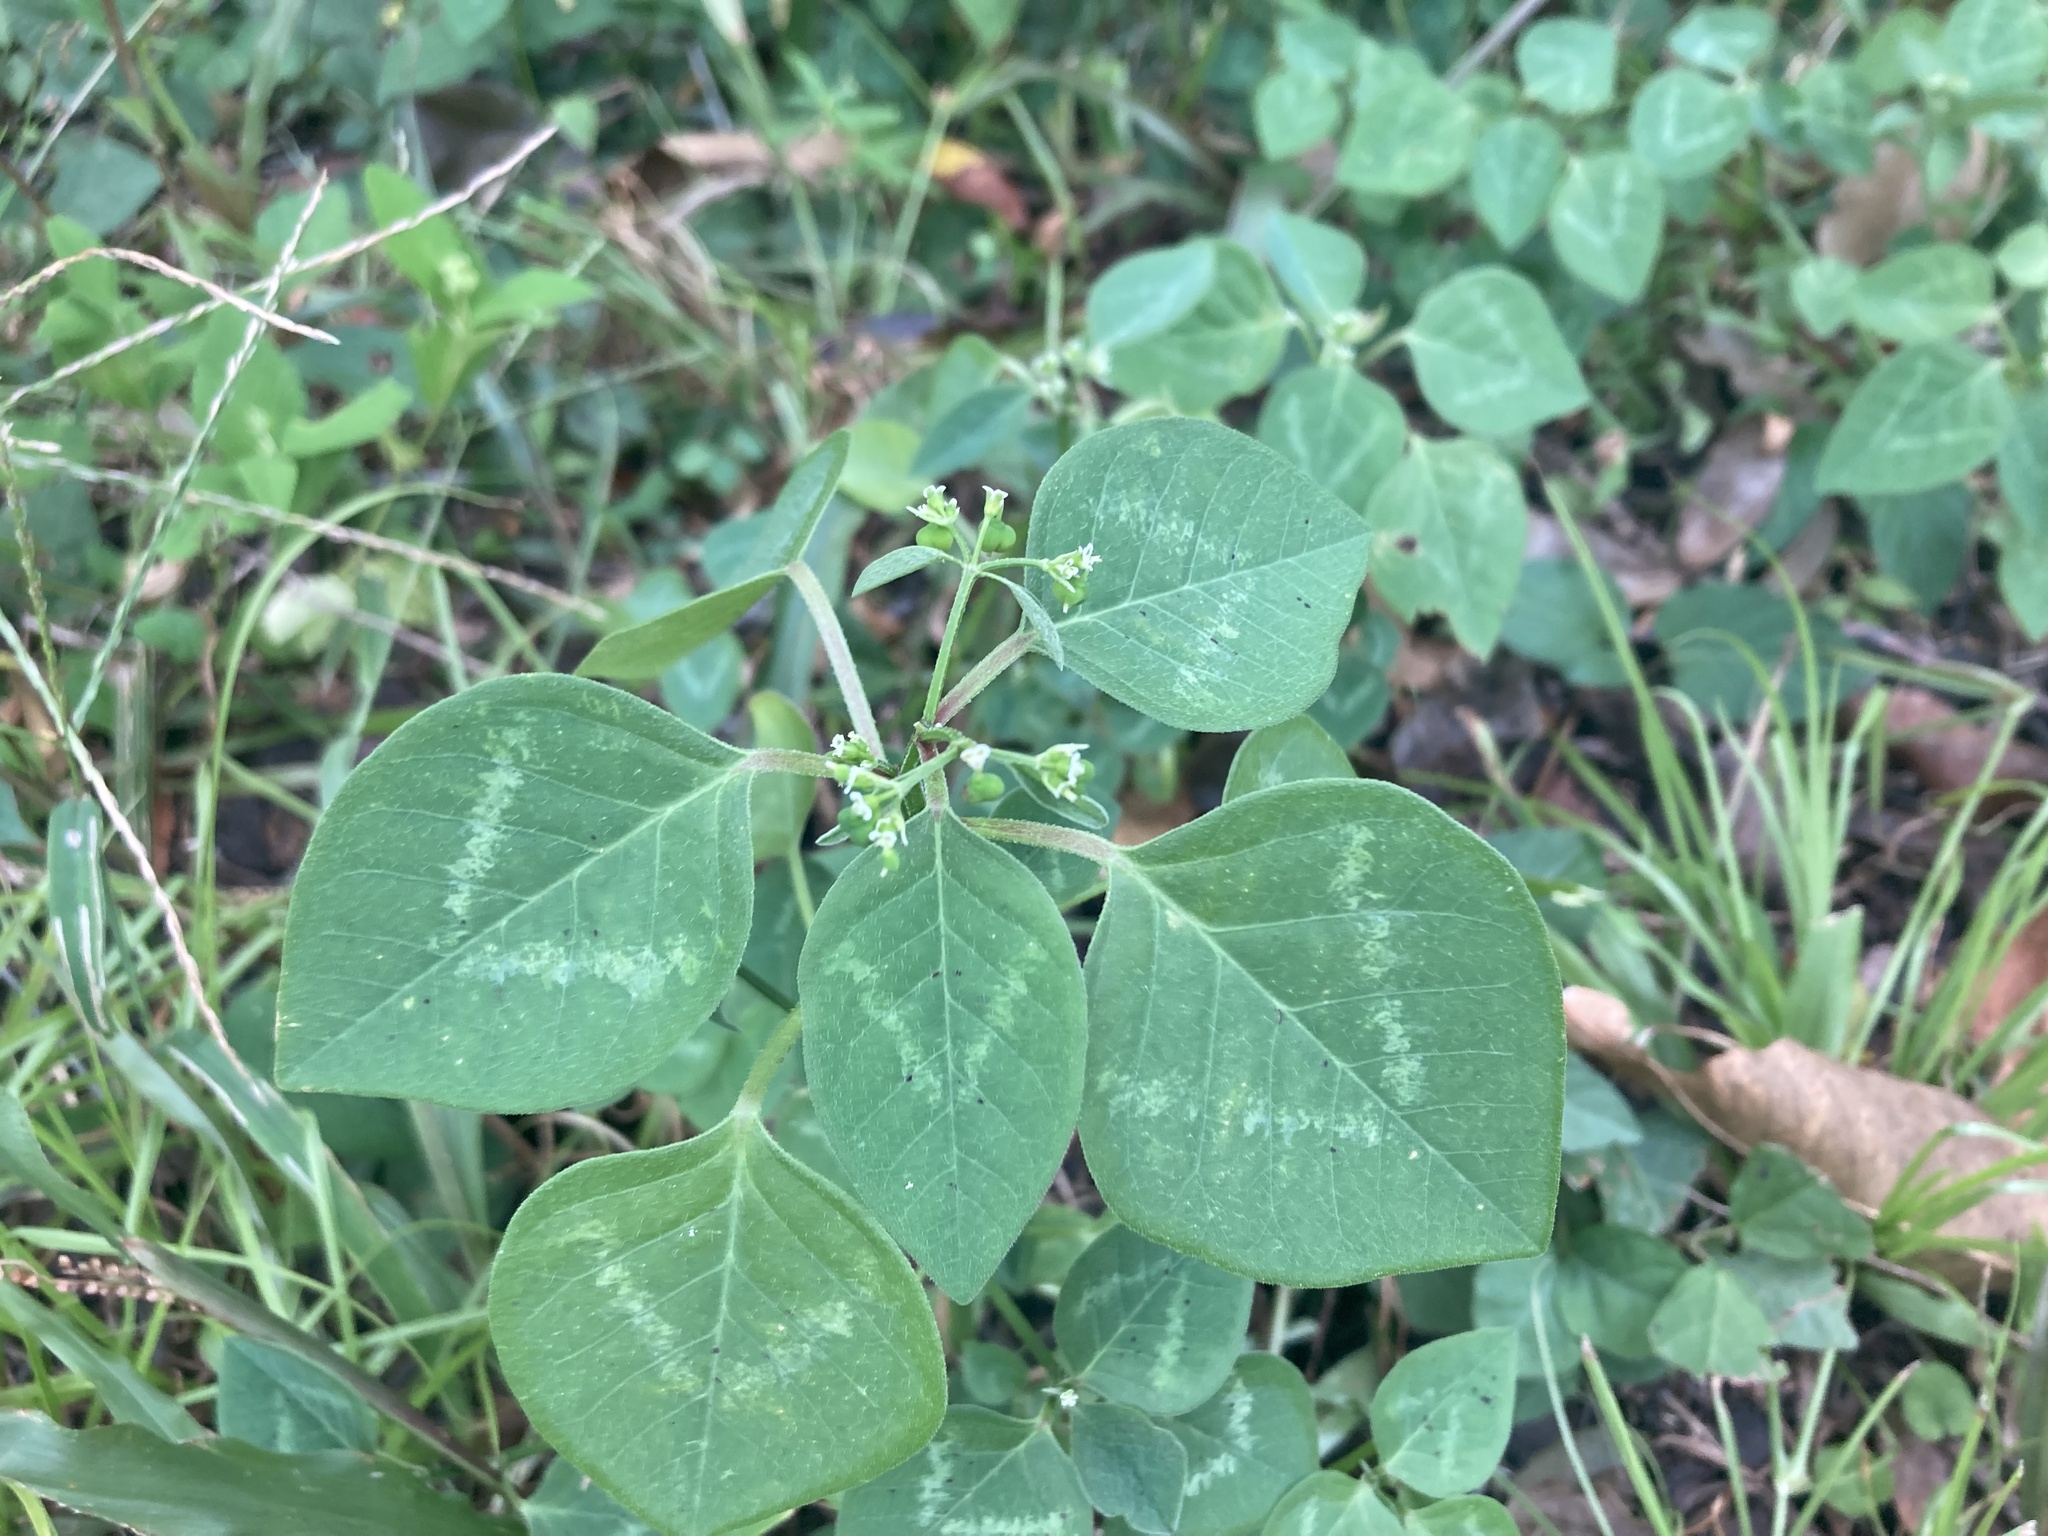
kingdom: Plantae
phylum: Tracheophyta
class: Magnoliopsida
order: Malpighiales
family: Euphorbiaceae
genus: Euphorbia
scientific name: Euphorbia graminea
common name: Grassleaf spurge
